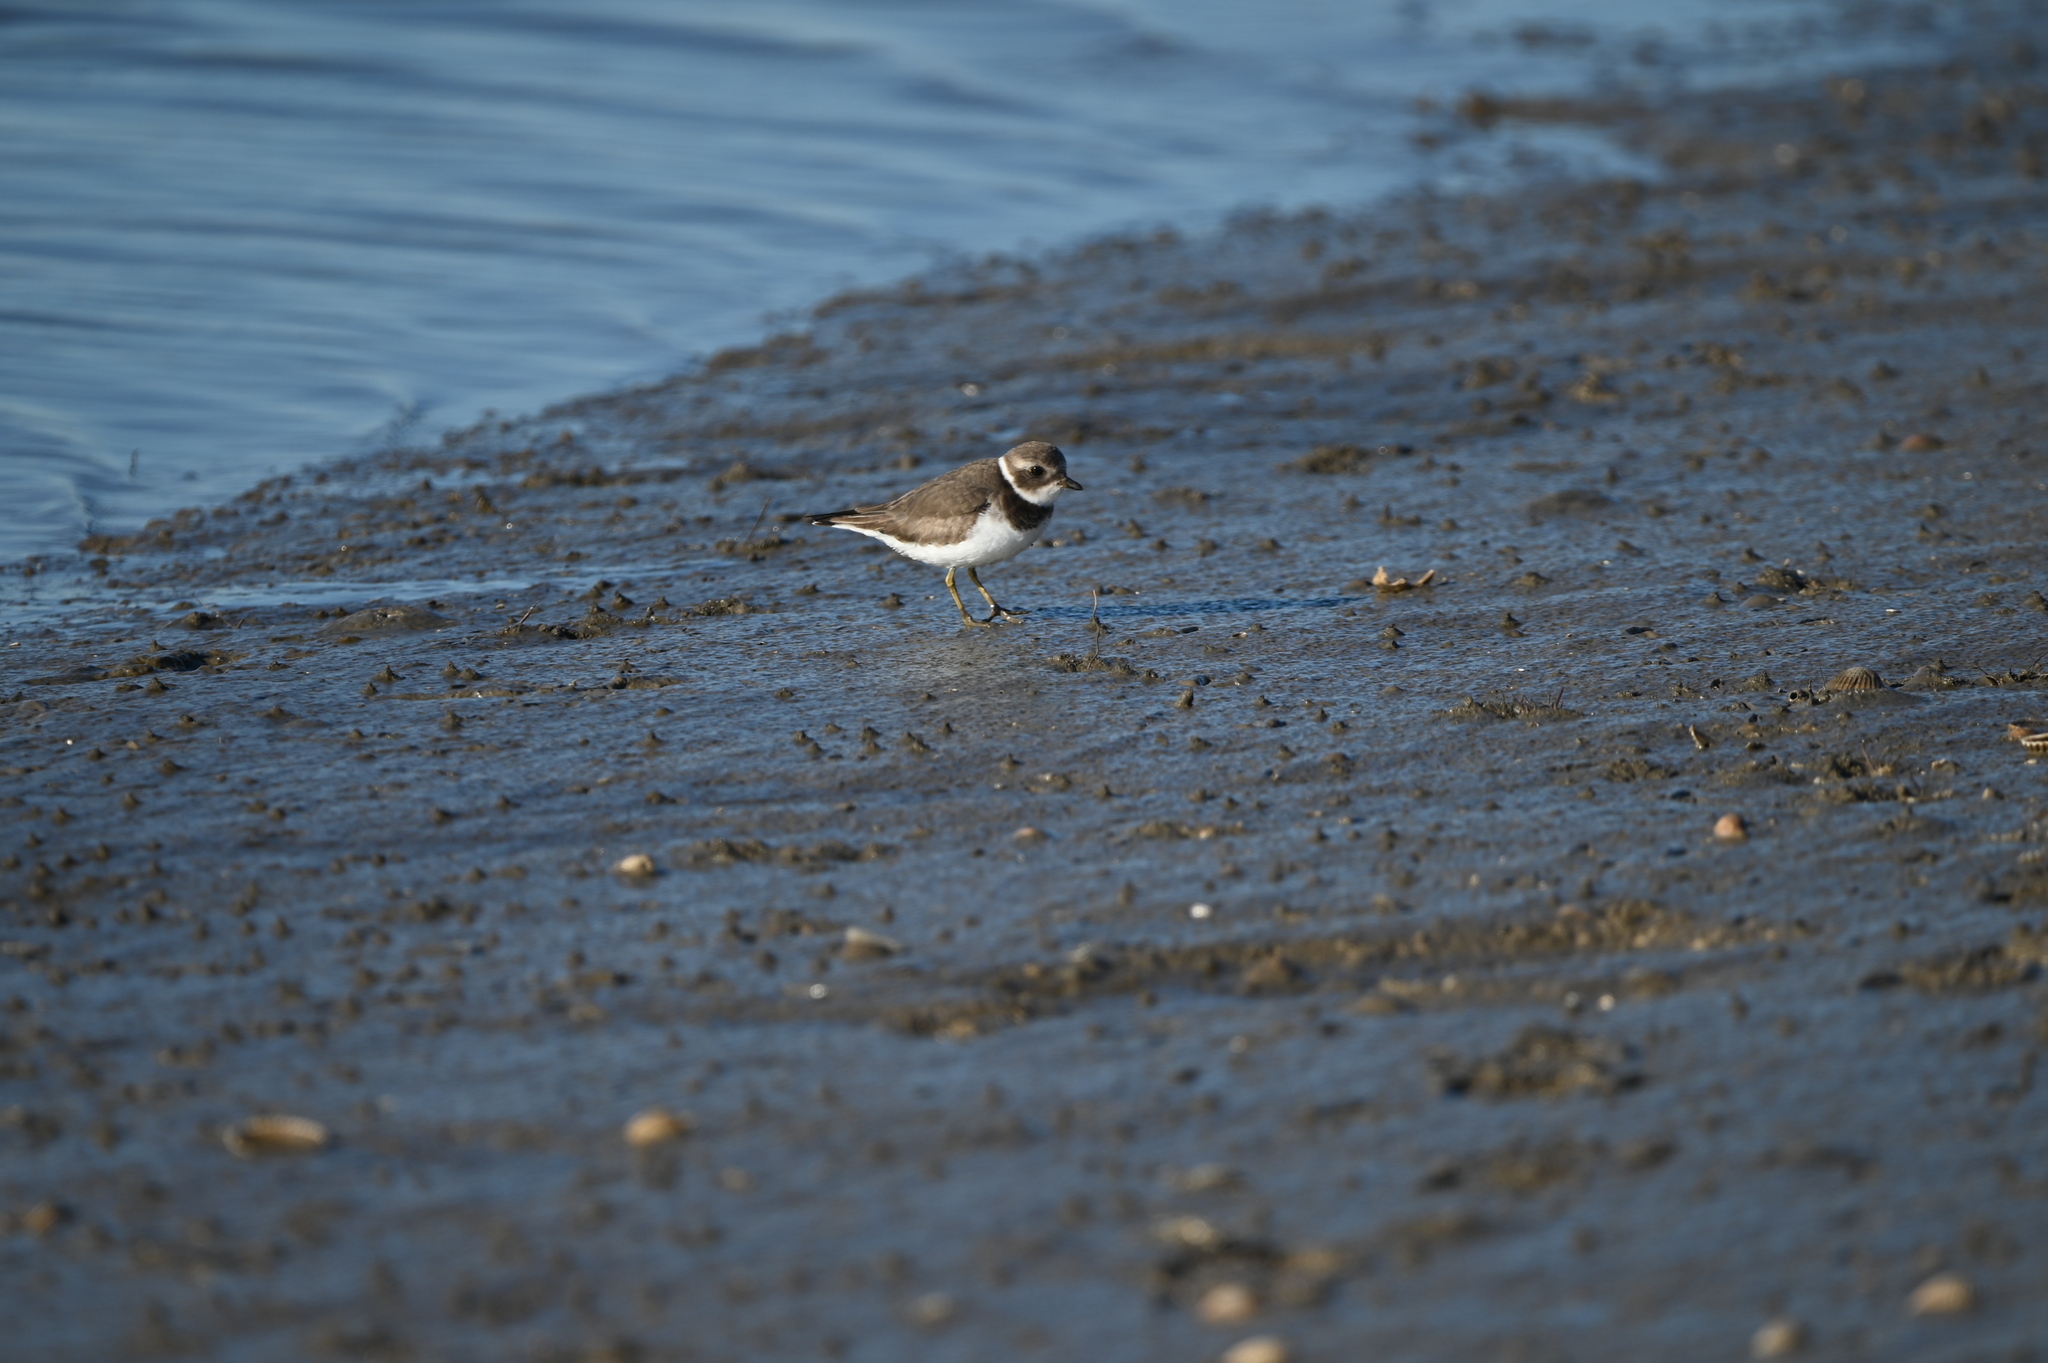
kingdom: Animalia
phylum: Chordata
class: Aves
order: Charadriiformes
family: Charadriidae
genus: Charadrius
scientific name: Charadrius semipalmatus
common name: Semipalmated plover
